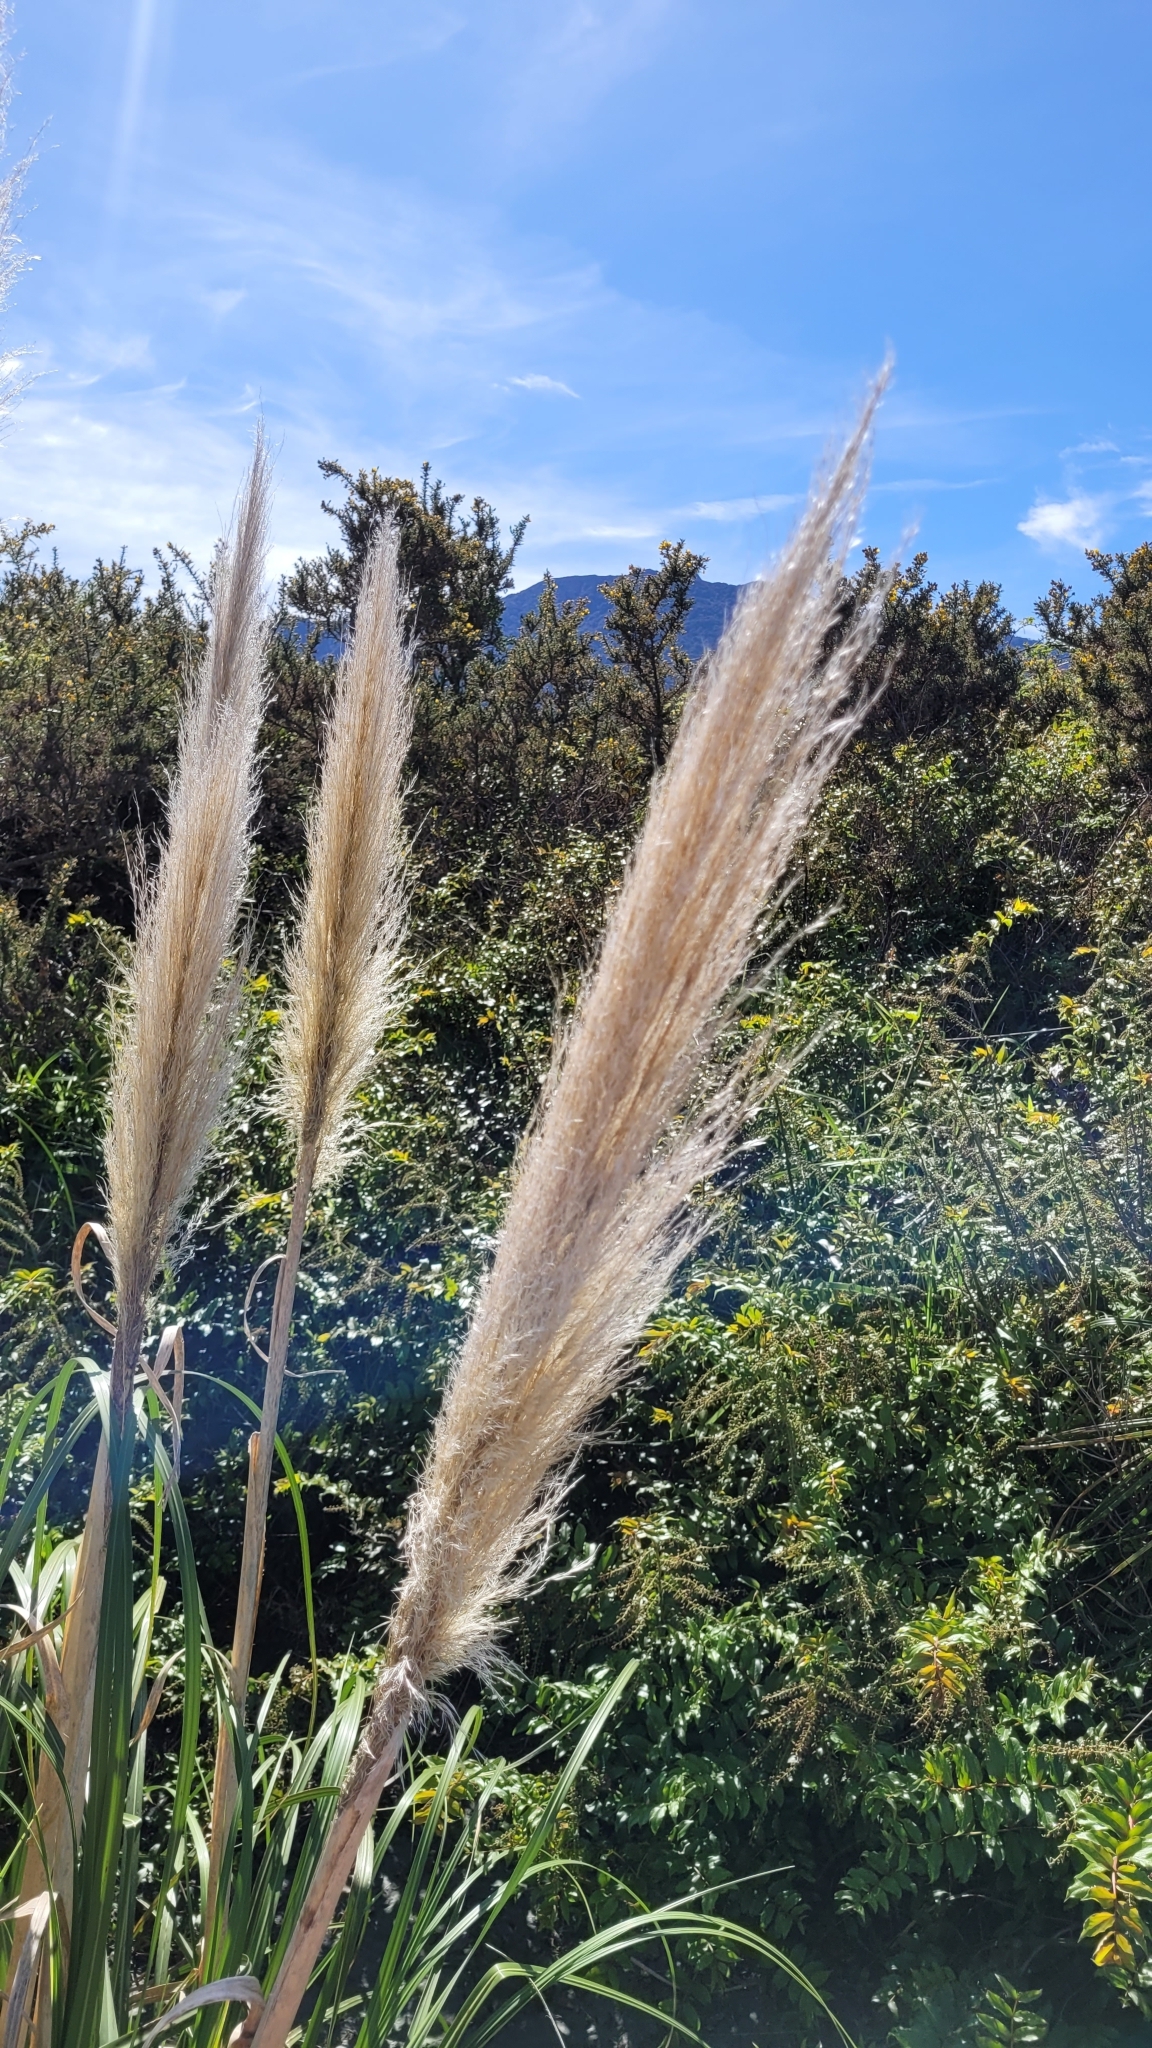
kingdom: Plantae
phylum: Tracheophyta
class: Liliopsida
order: Poales
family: Poaceae
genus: Cortaderia
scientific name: Cortaderia jubata
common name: Purple pampas grass
